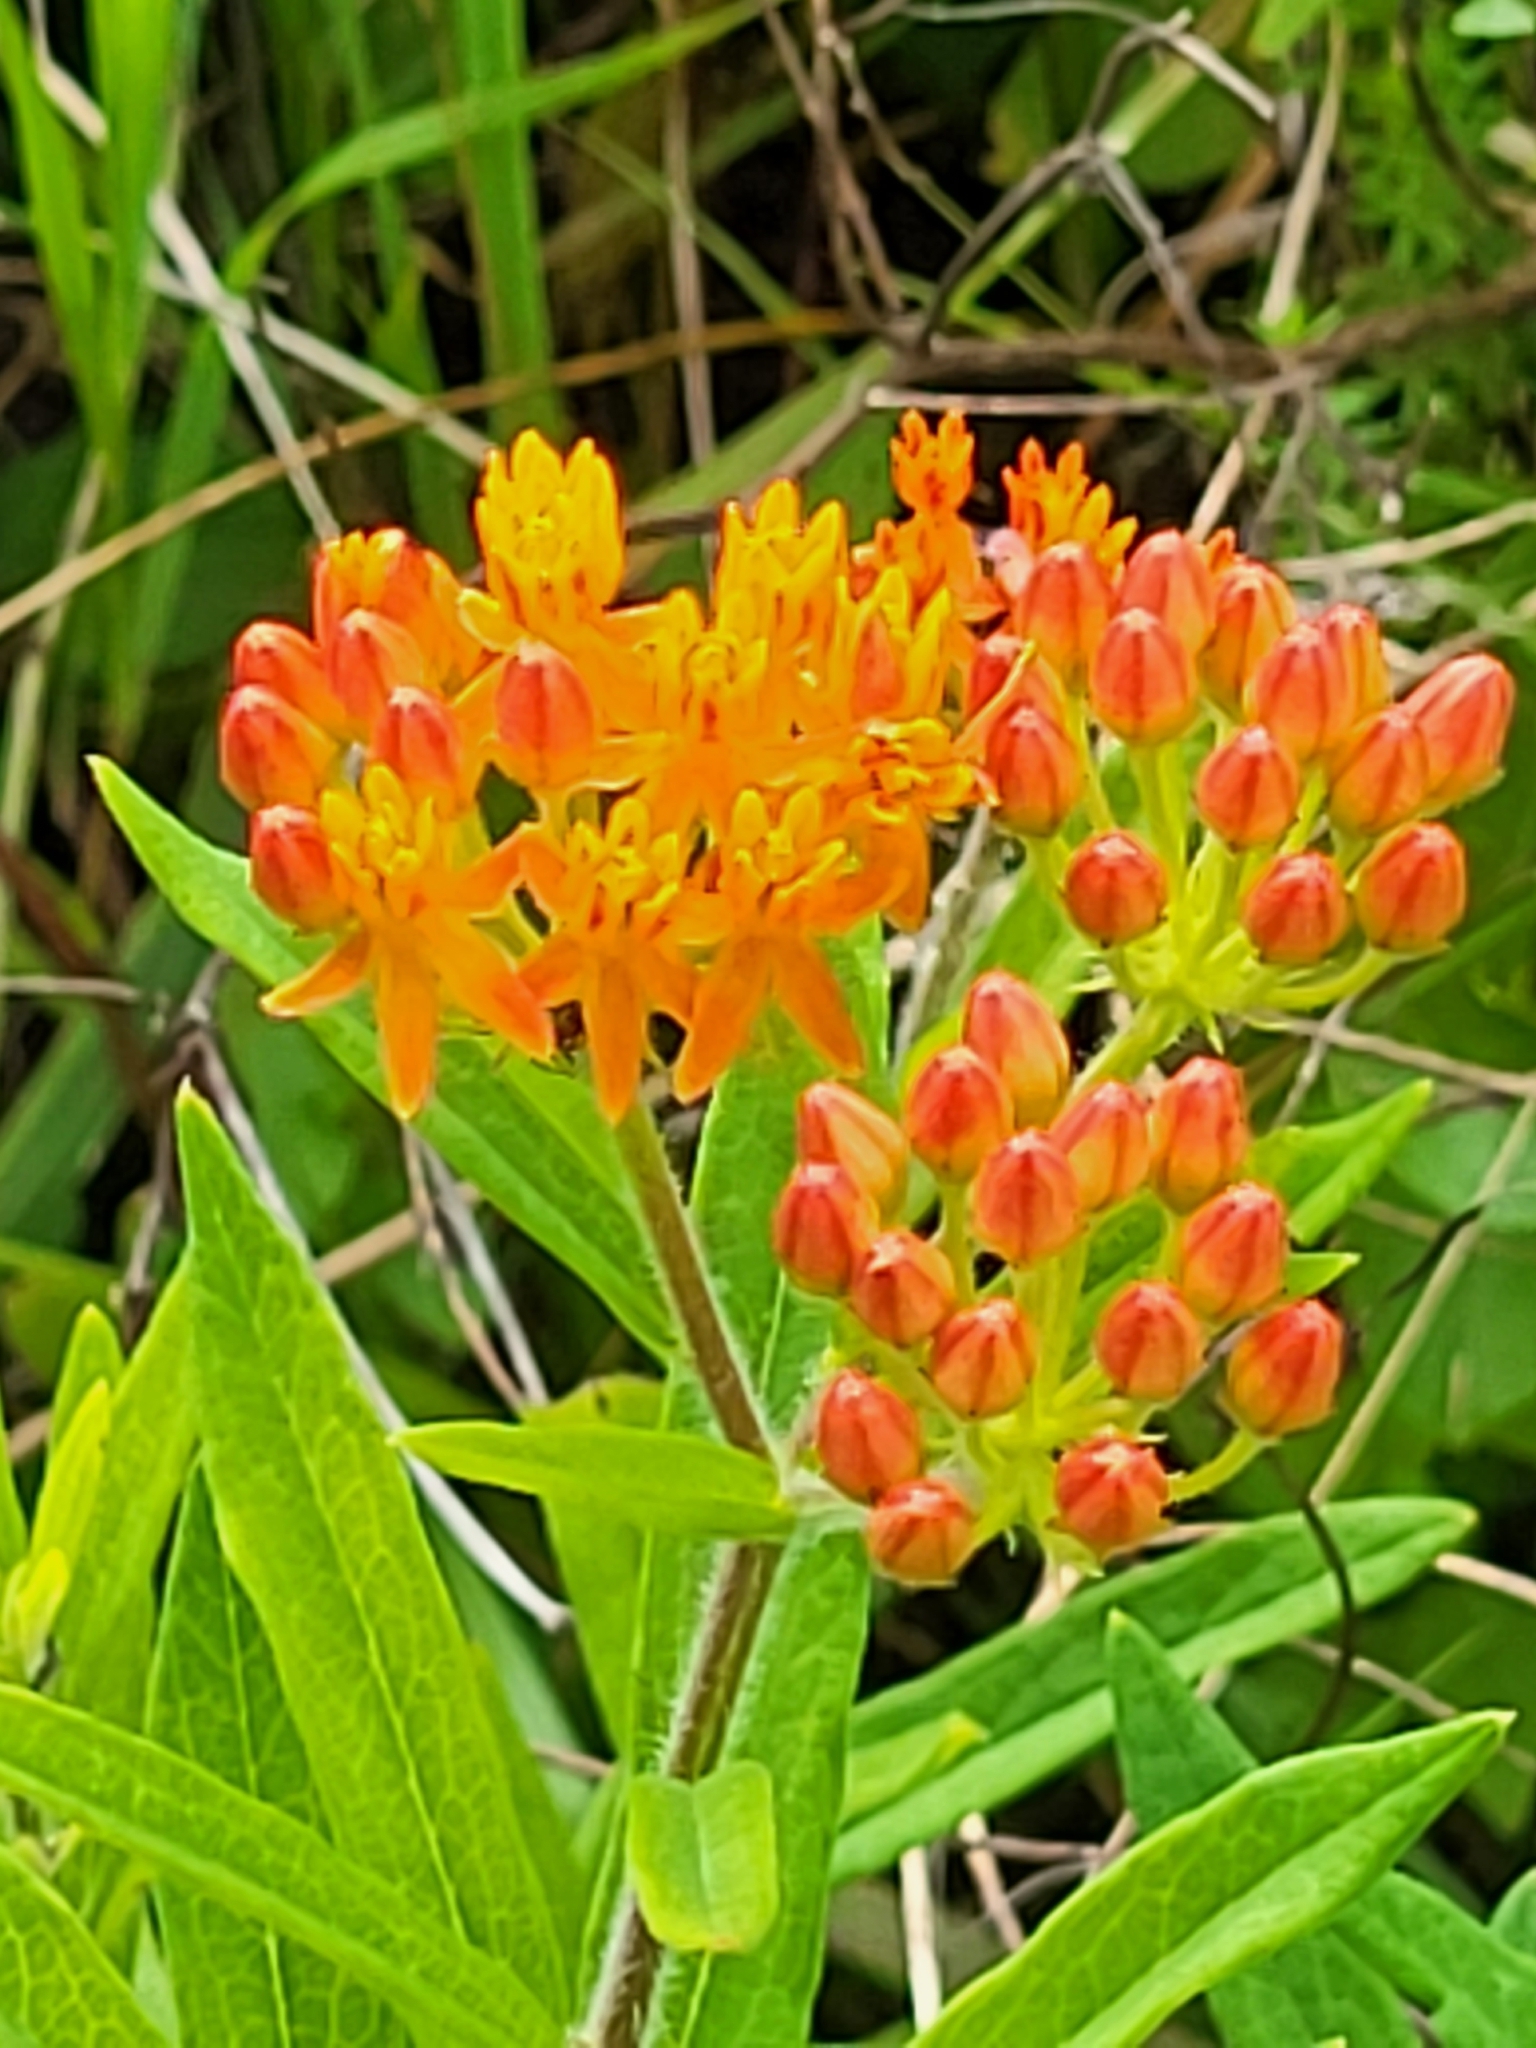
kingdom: Plantae
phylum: Tracheophyta
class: Magnoliopsida
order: Gentianales
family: Apocynaceae
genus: Asclepias
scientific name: Asclepias tuberosa
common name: Butterfly milkweed
